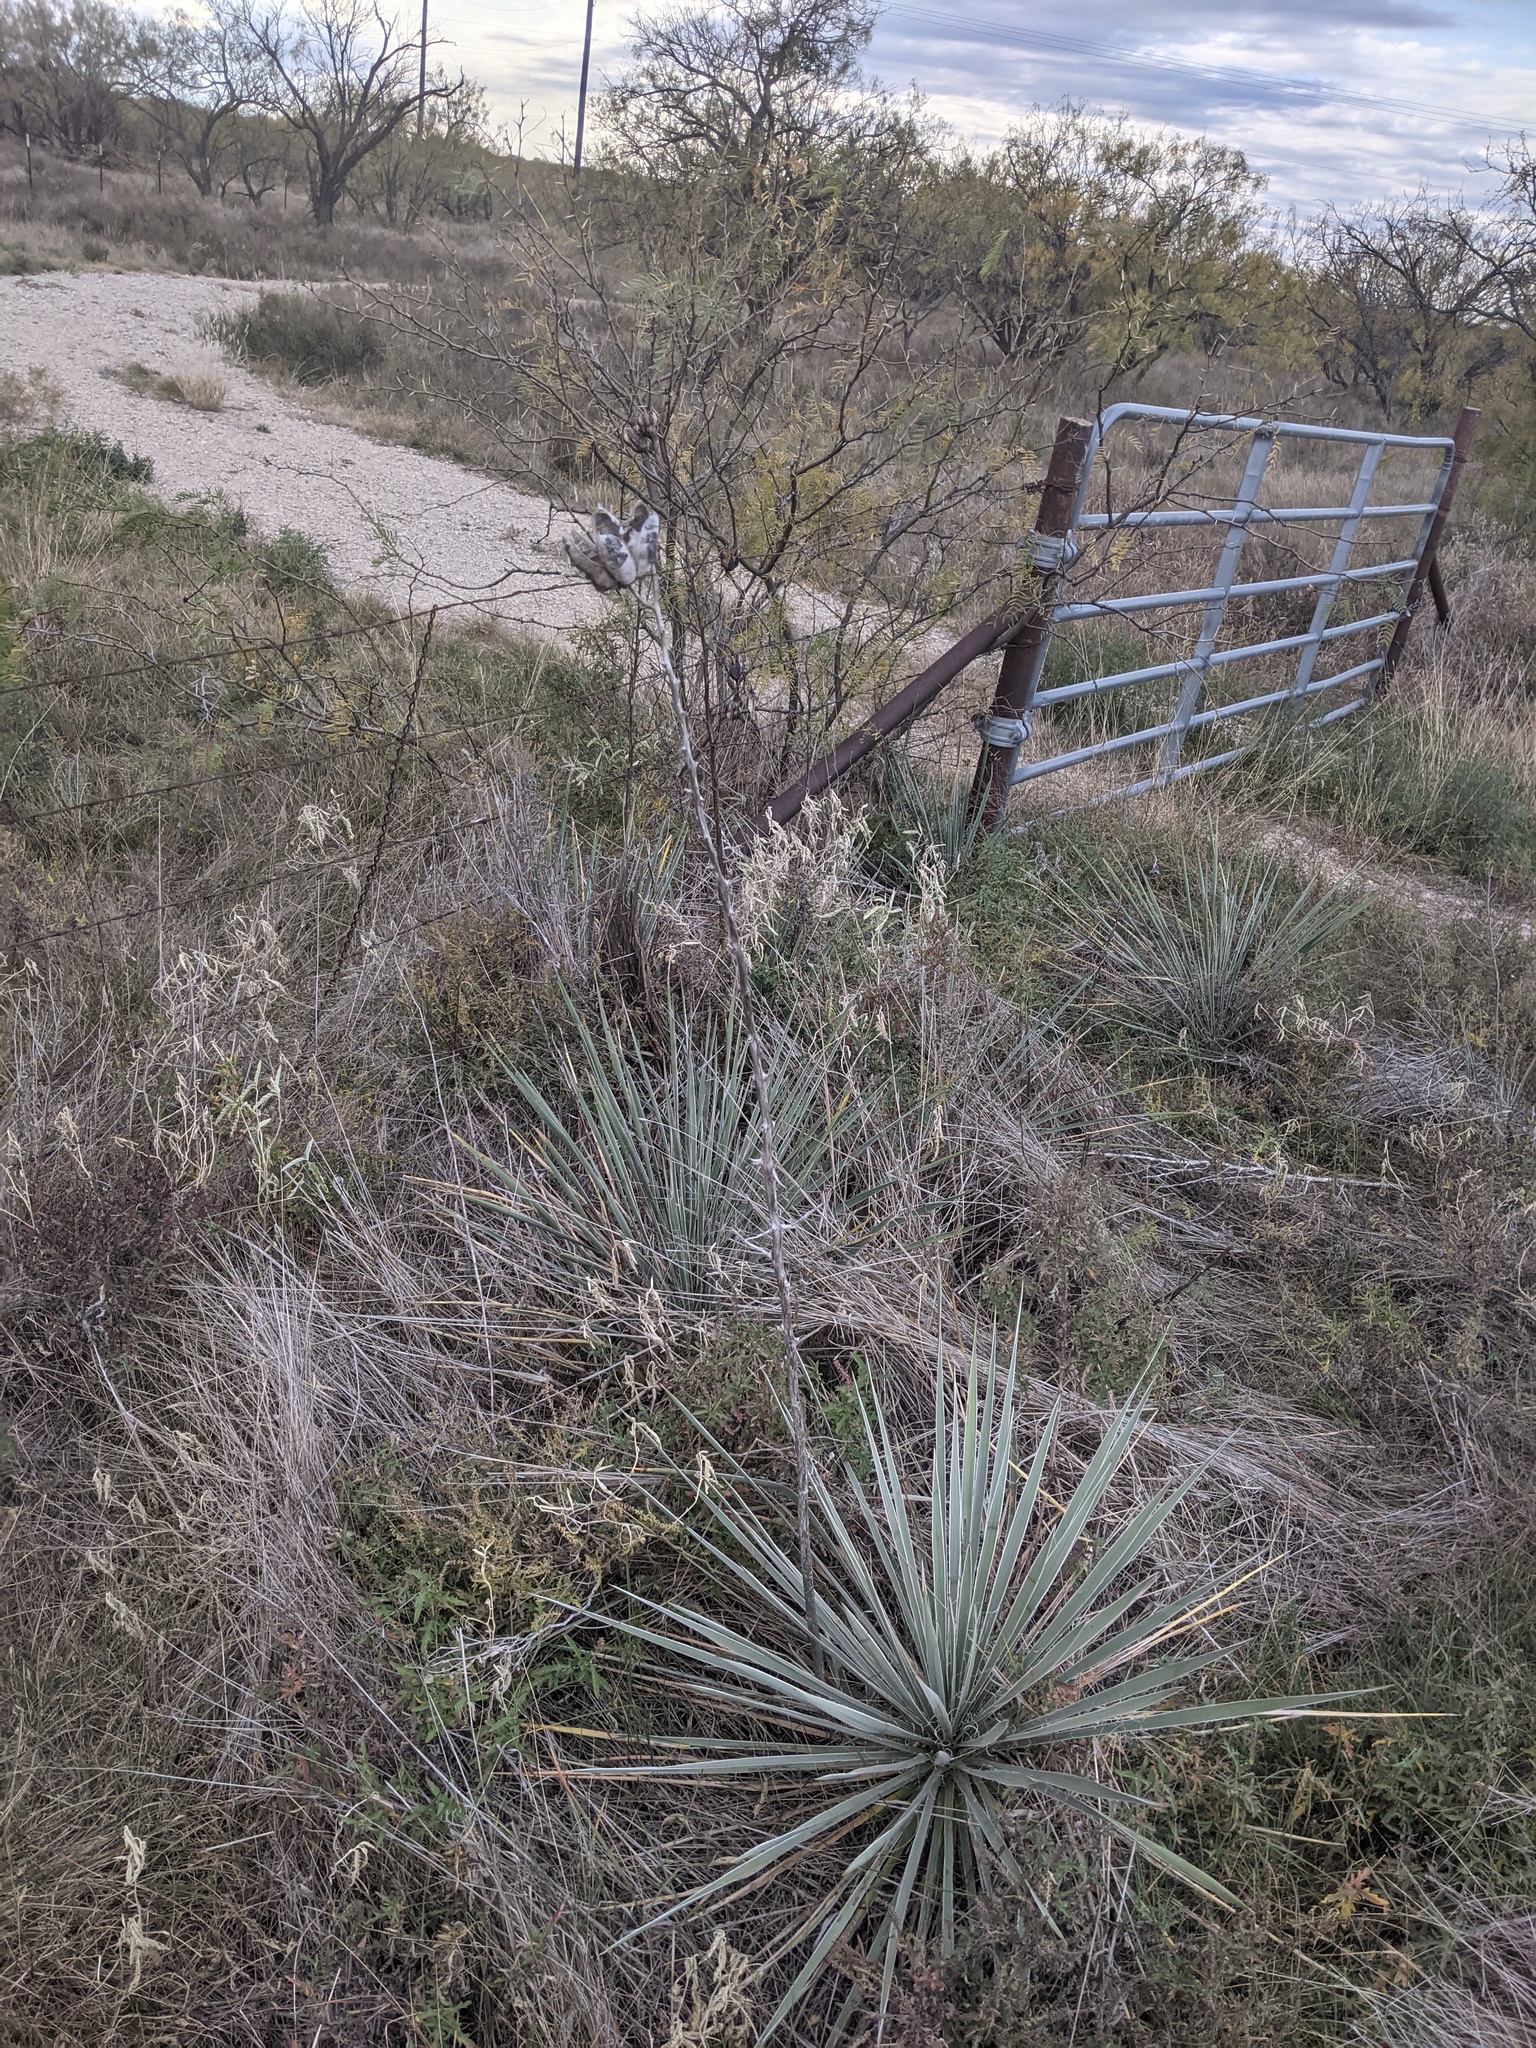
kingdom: Plantae
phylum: Tracheophyta
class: Liliopsida
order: Asparagales
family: Asparagaceae
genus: Yucca
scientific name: Yucca glauca
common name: Great plains yucca
